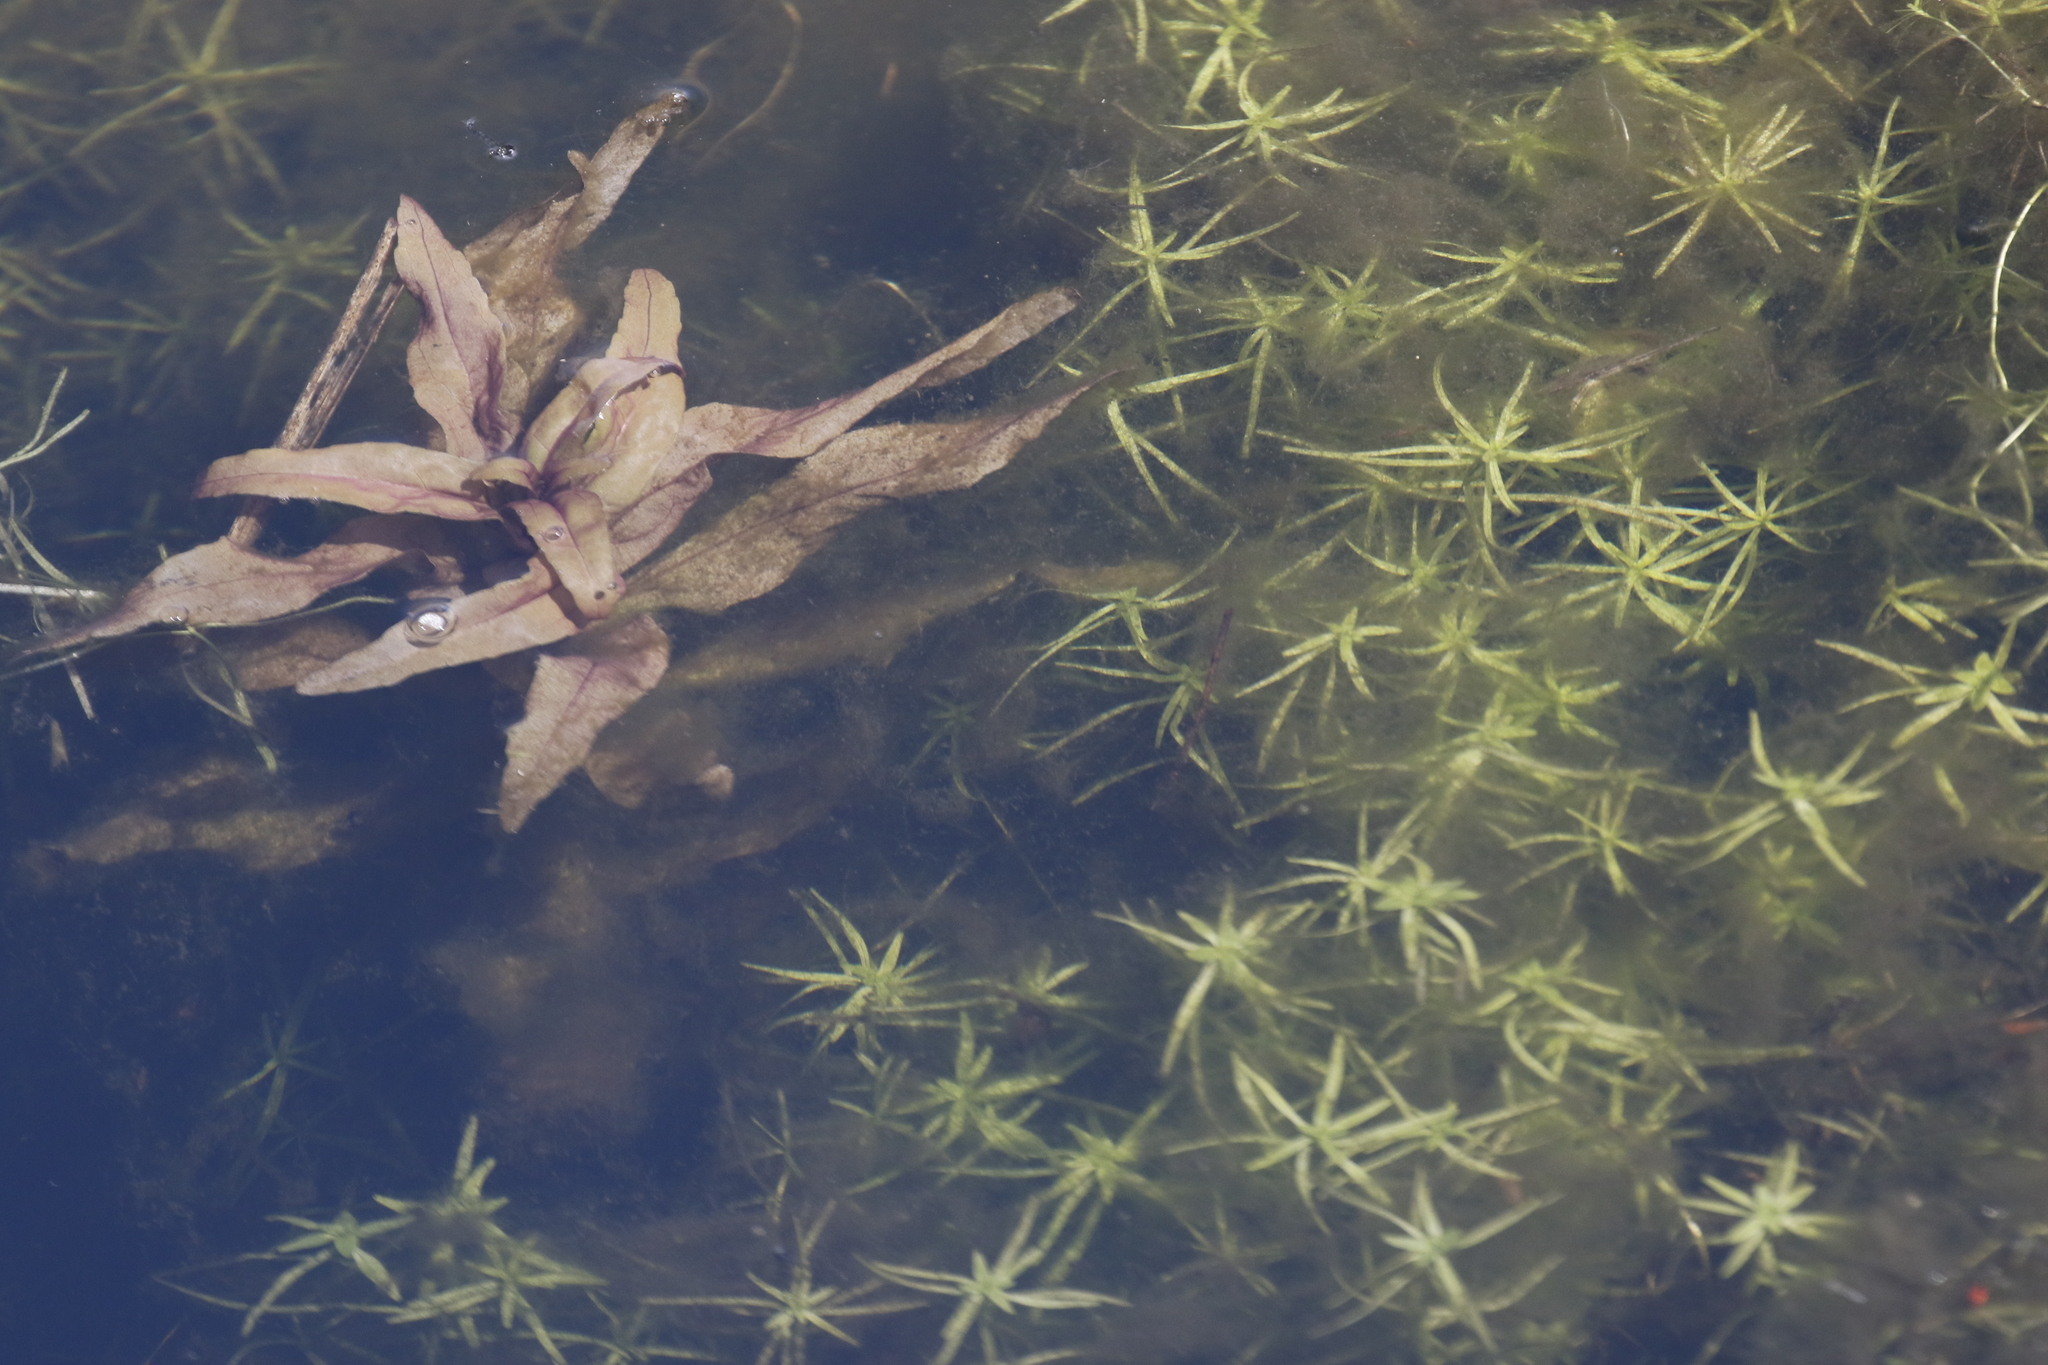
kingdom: Plantae
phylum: Tracheophyta
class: Magnoliopsida
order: Lamiales
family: Plantaginaceae
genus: Callitriche
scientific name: Callitriche stagnalis
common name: Common water-starwort
